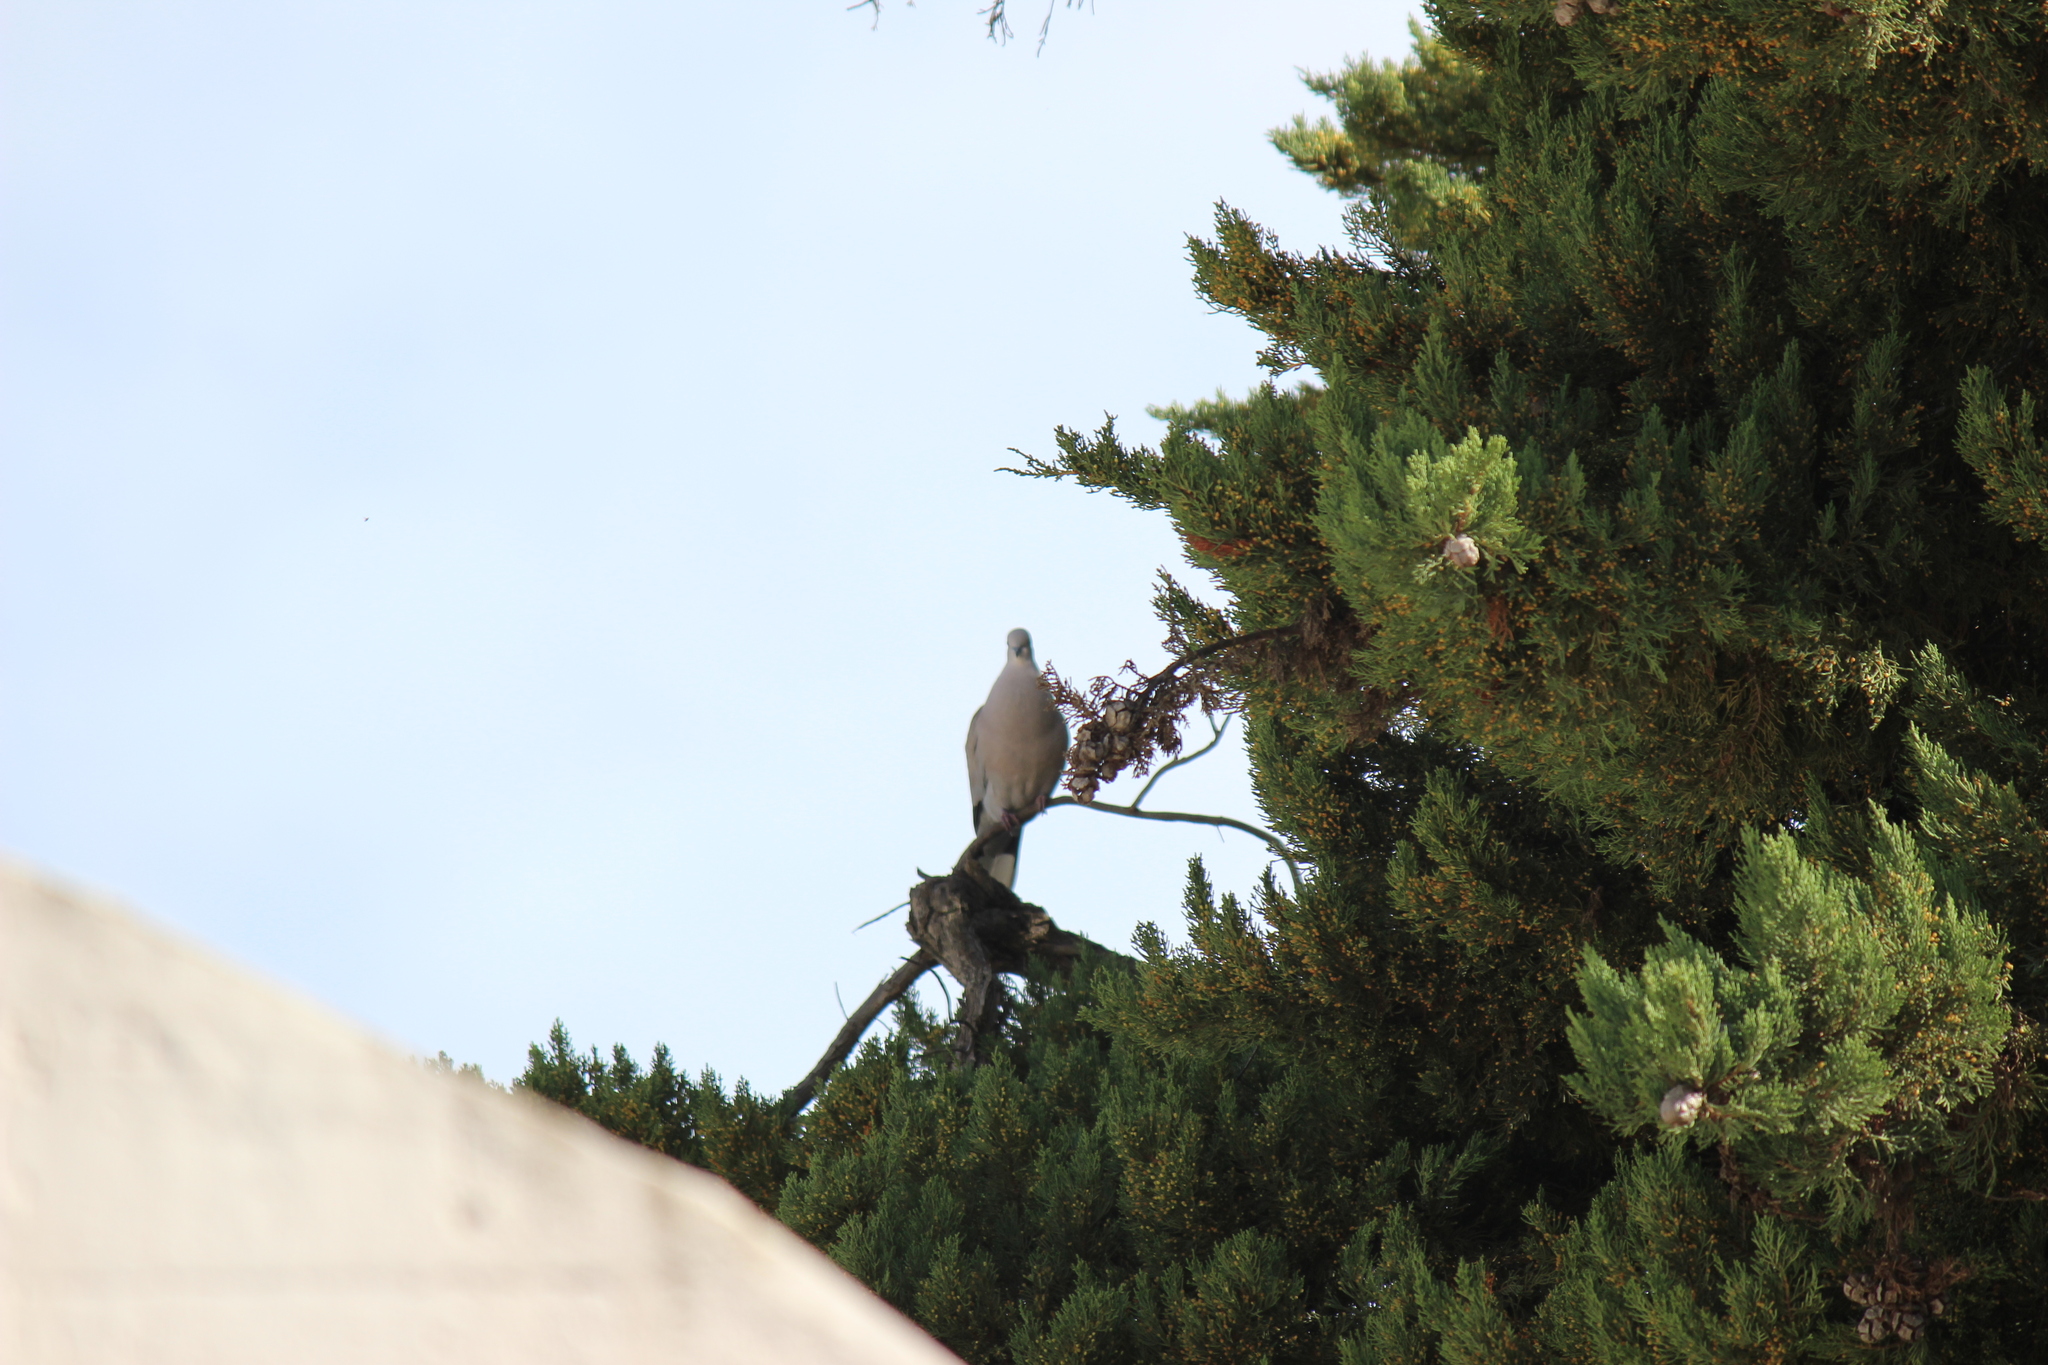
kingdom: Animalia
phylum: Chordata
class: Aves
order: Columbiformes
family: Columbidae
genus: Streptopelia
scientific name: Streptopelia decaocto
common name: Eurasian collared dove
